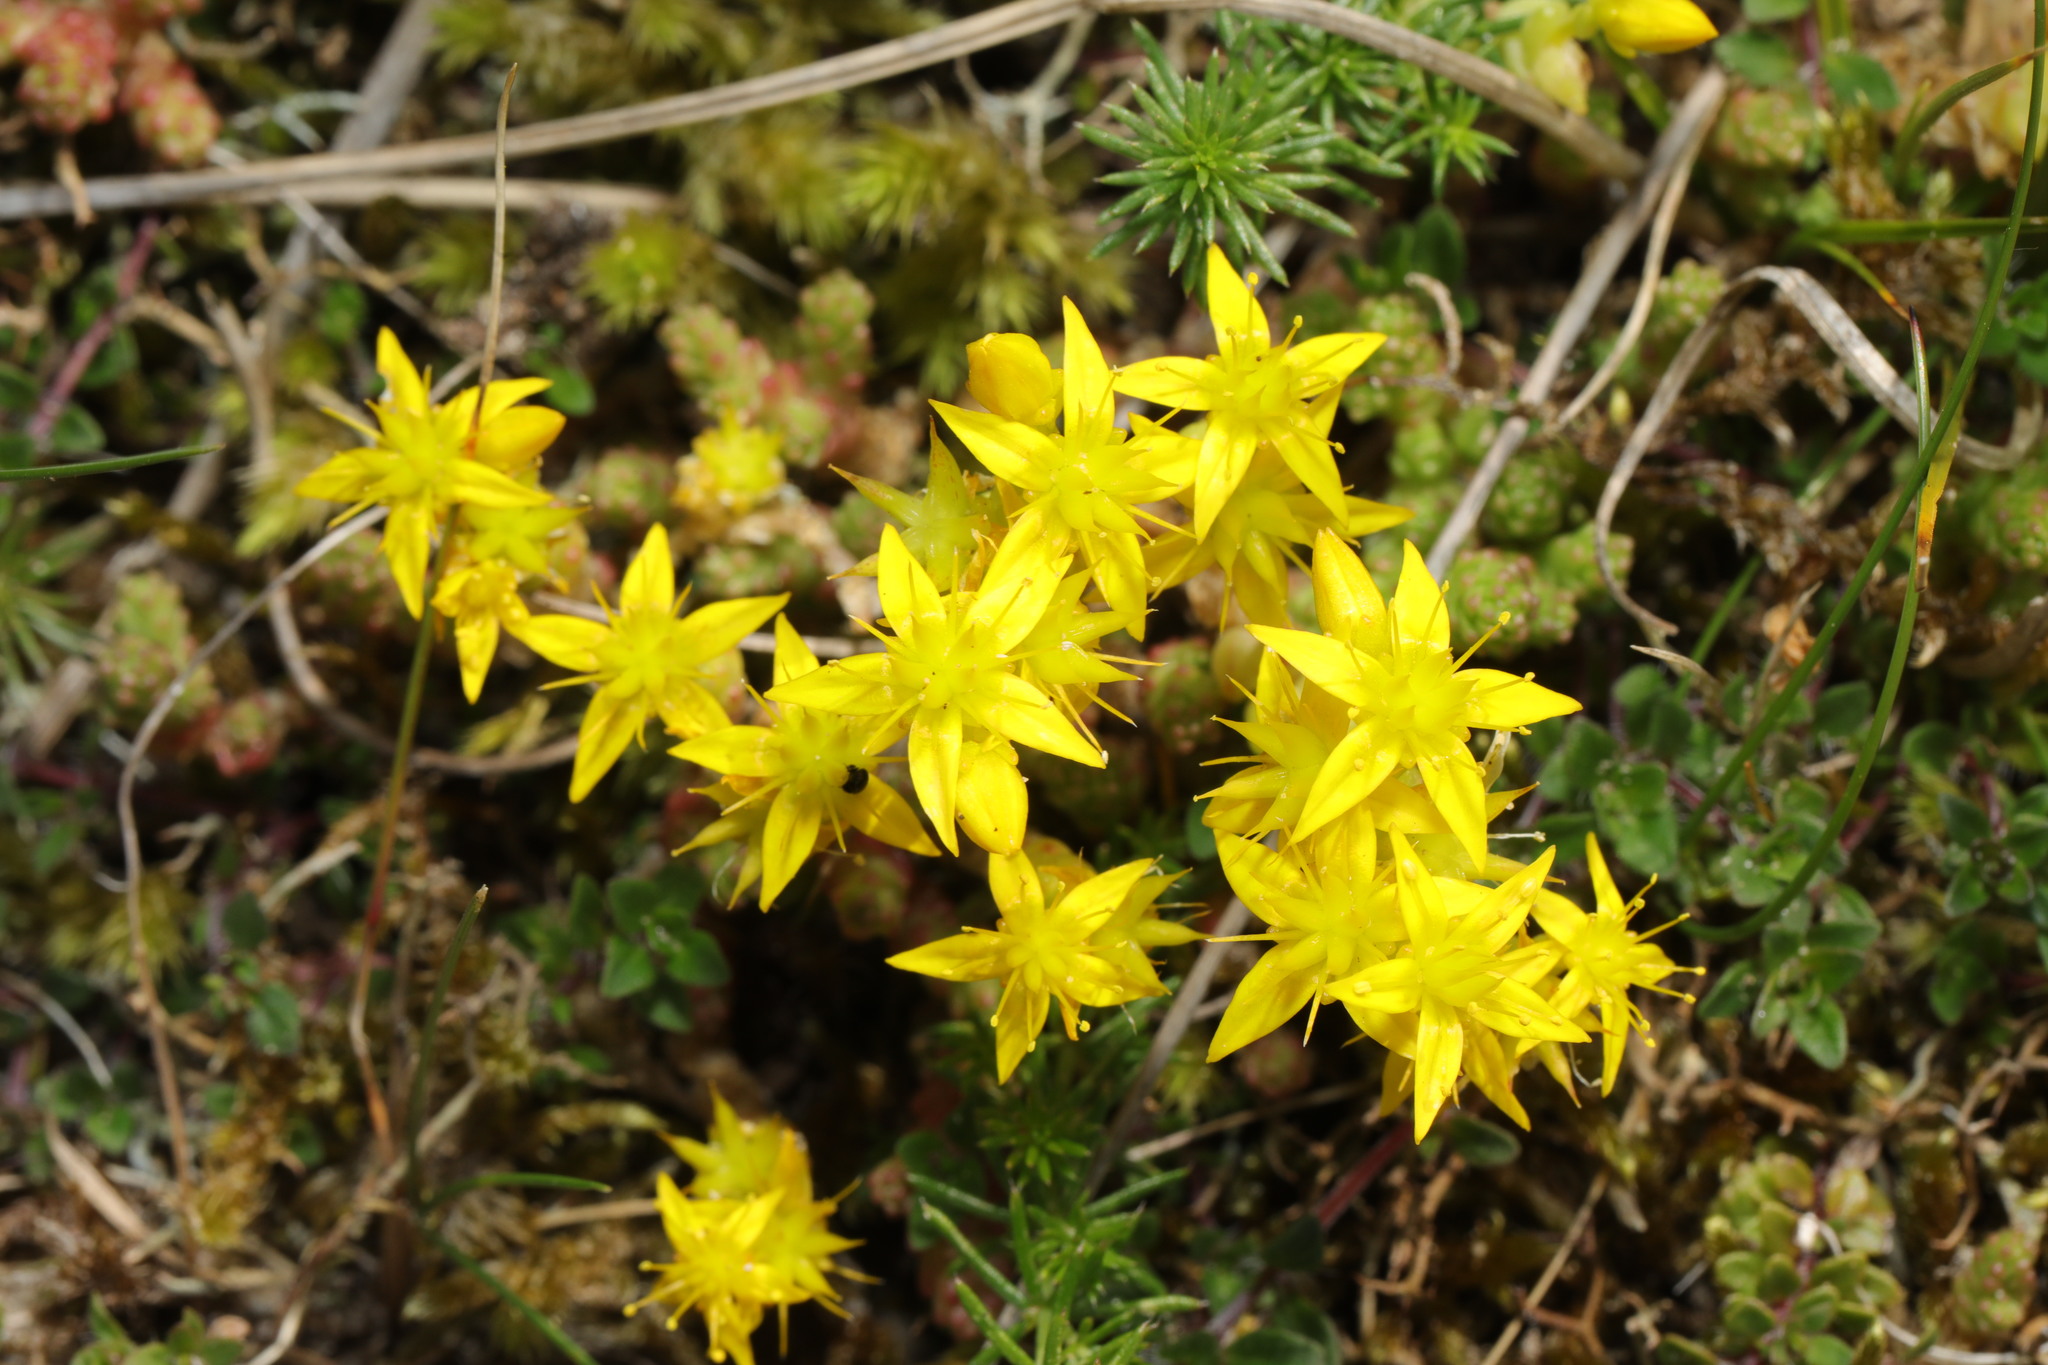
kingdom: Plantae
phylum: Tracheophyta
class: Magnoliopsida
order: Saxifragales
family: Crassulaceae
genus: Sedum
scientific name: Sedum acre
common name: Biting stonecrop
